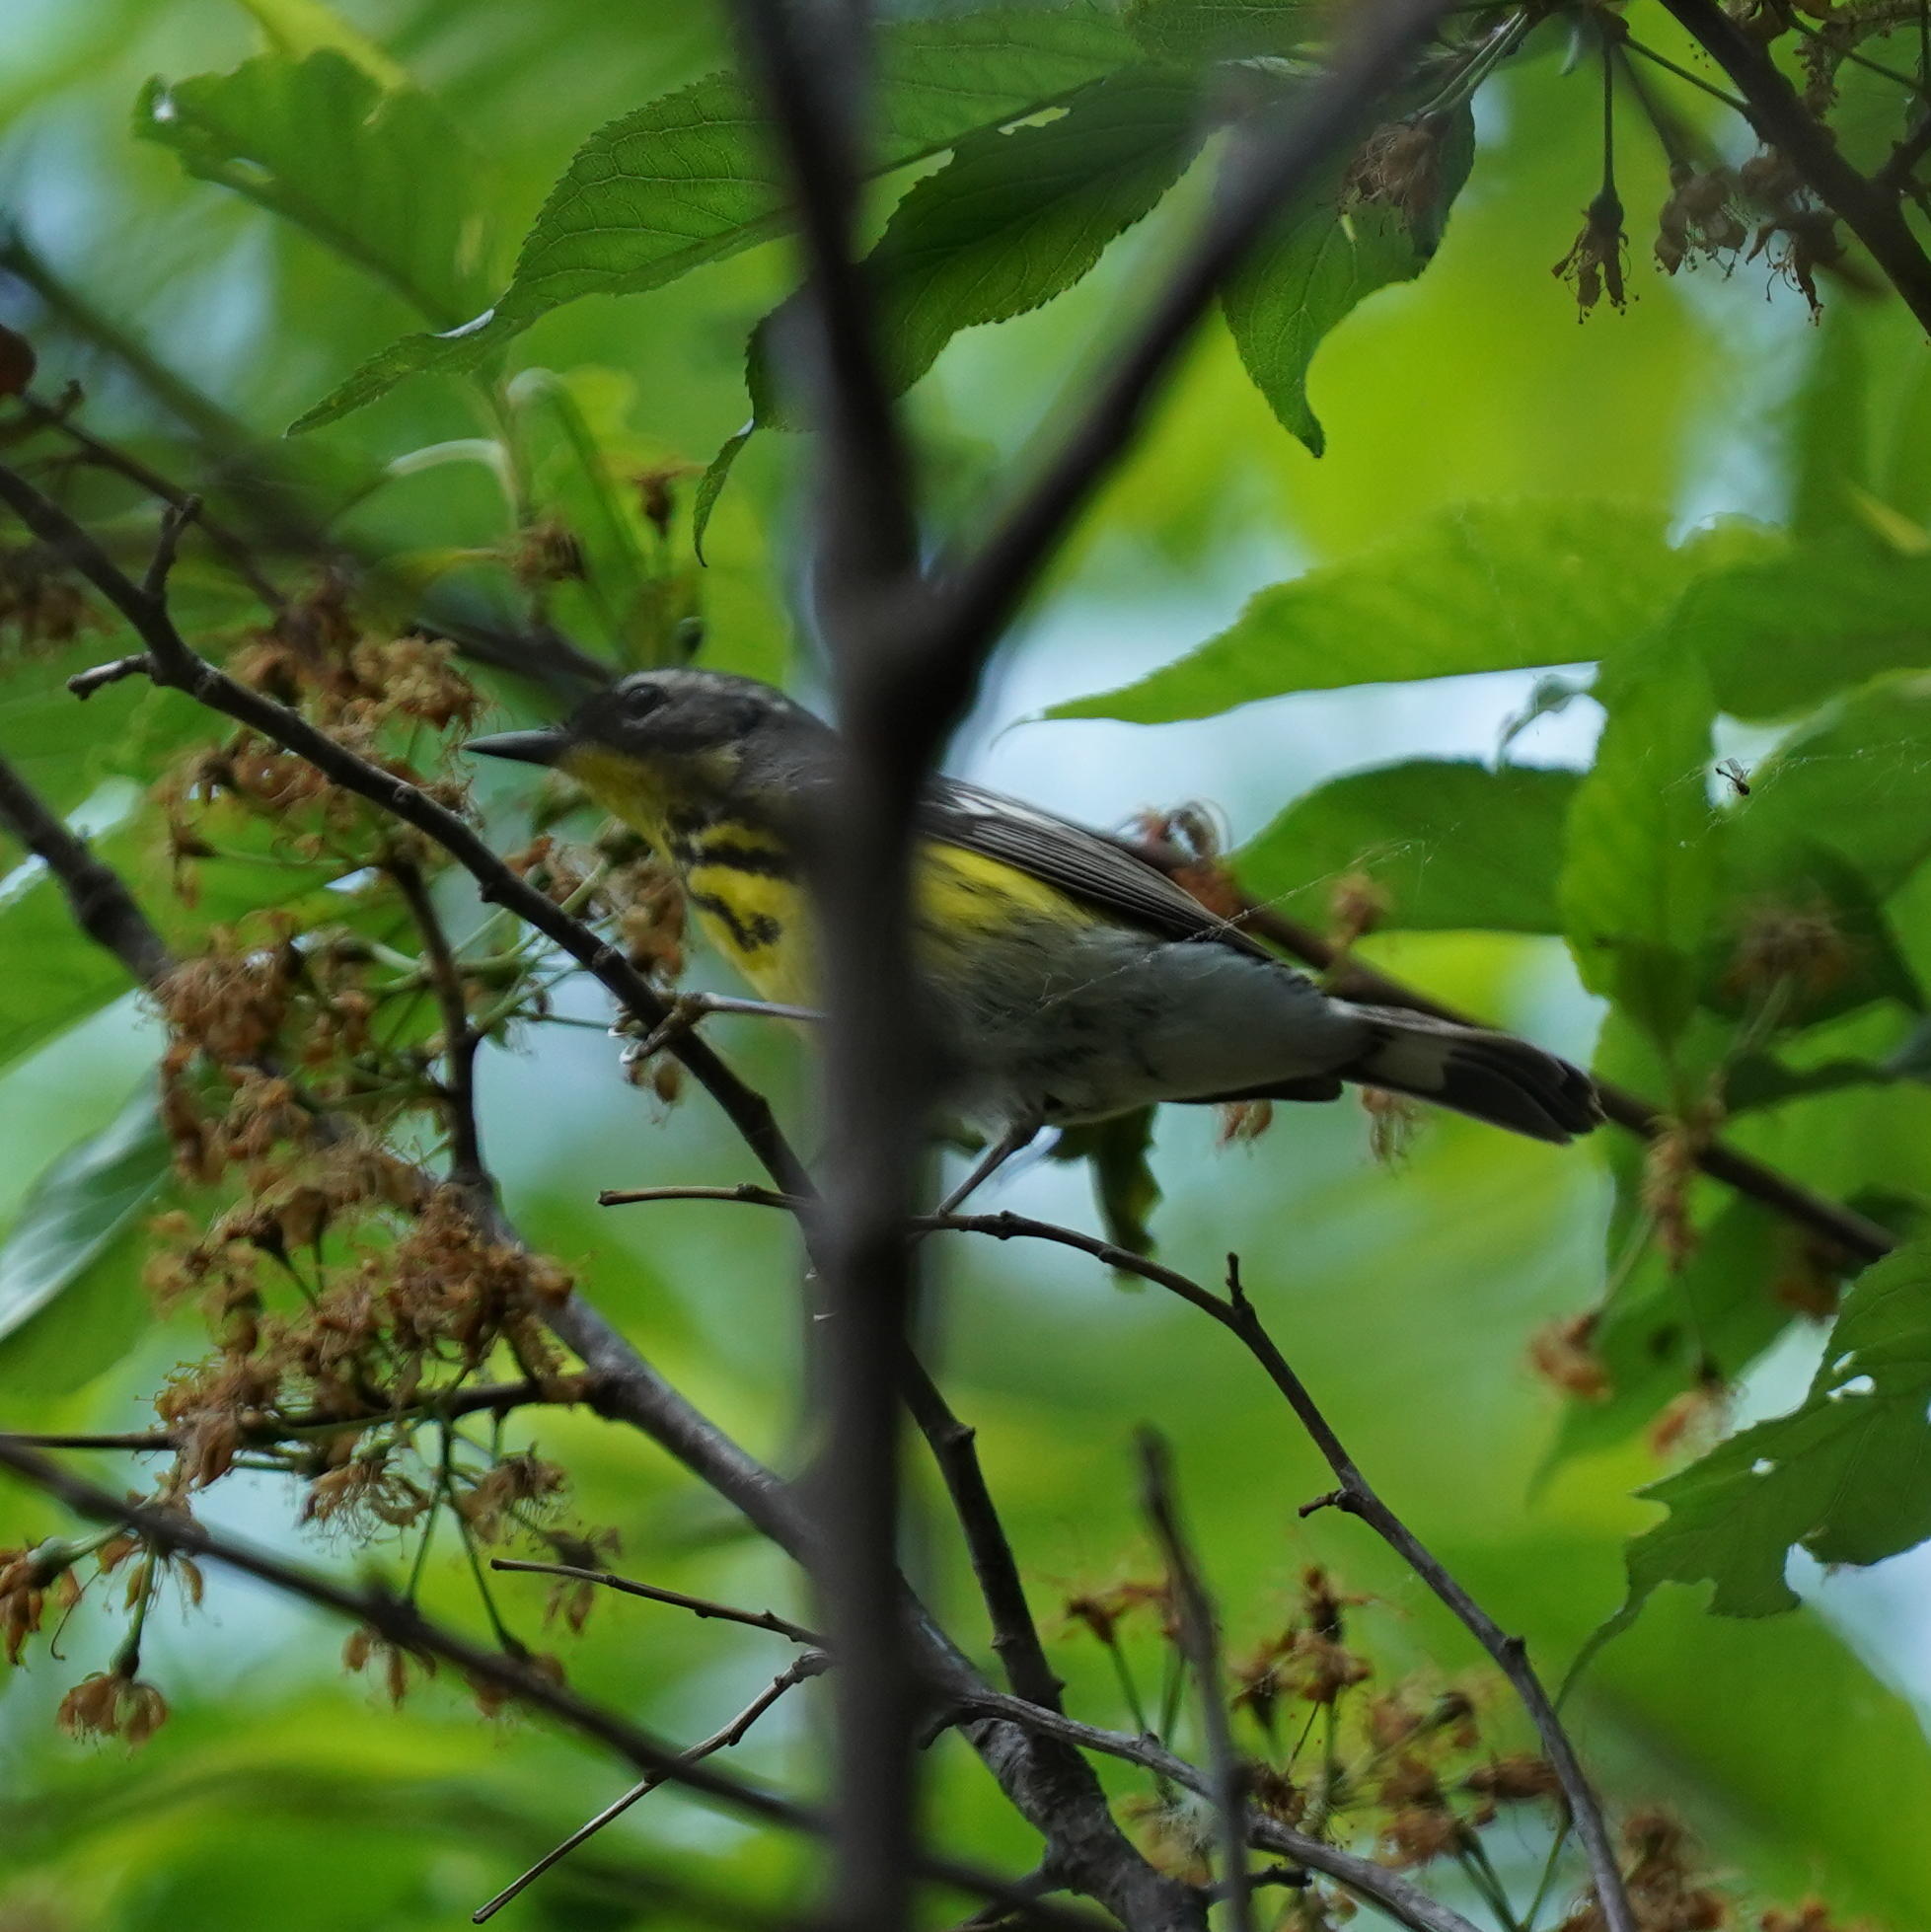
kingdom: Animalia
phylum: Chordata
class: Aves
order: Passeriformes
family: Parulidae
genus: Setophaga
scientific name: Setophaga magnolia
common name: Magnolia warbler
